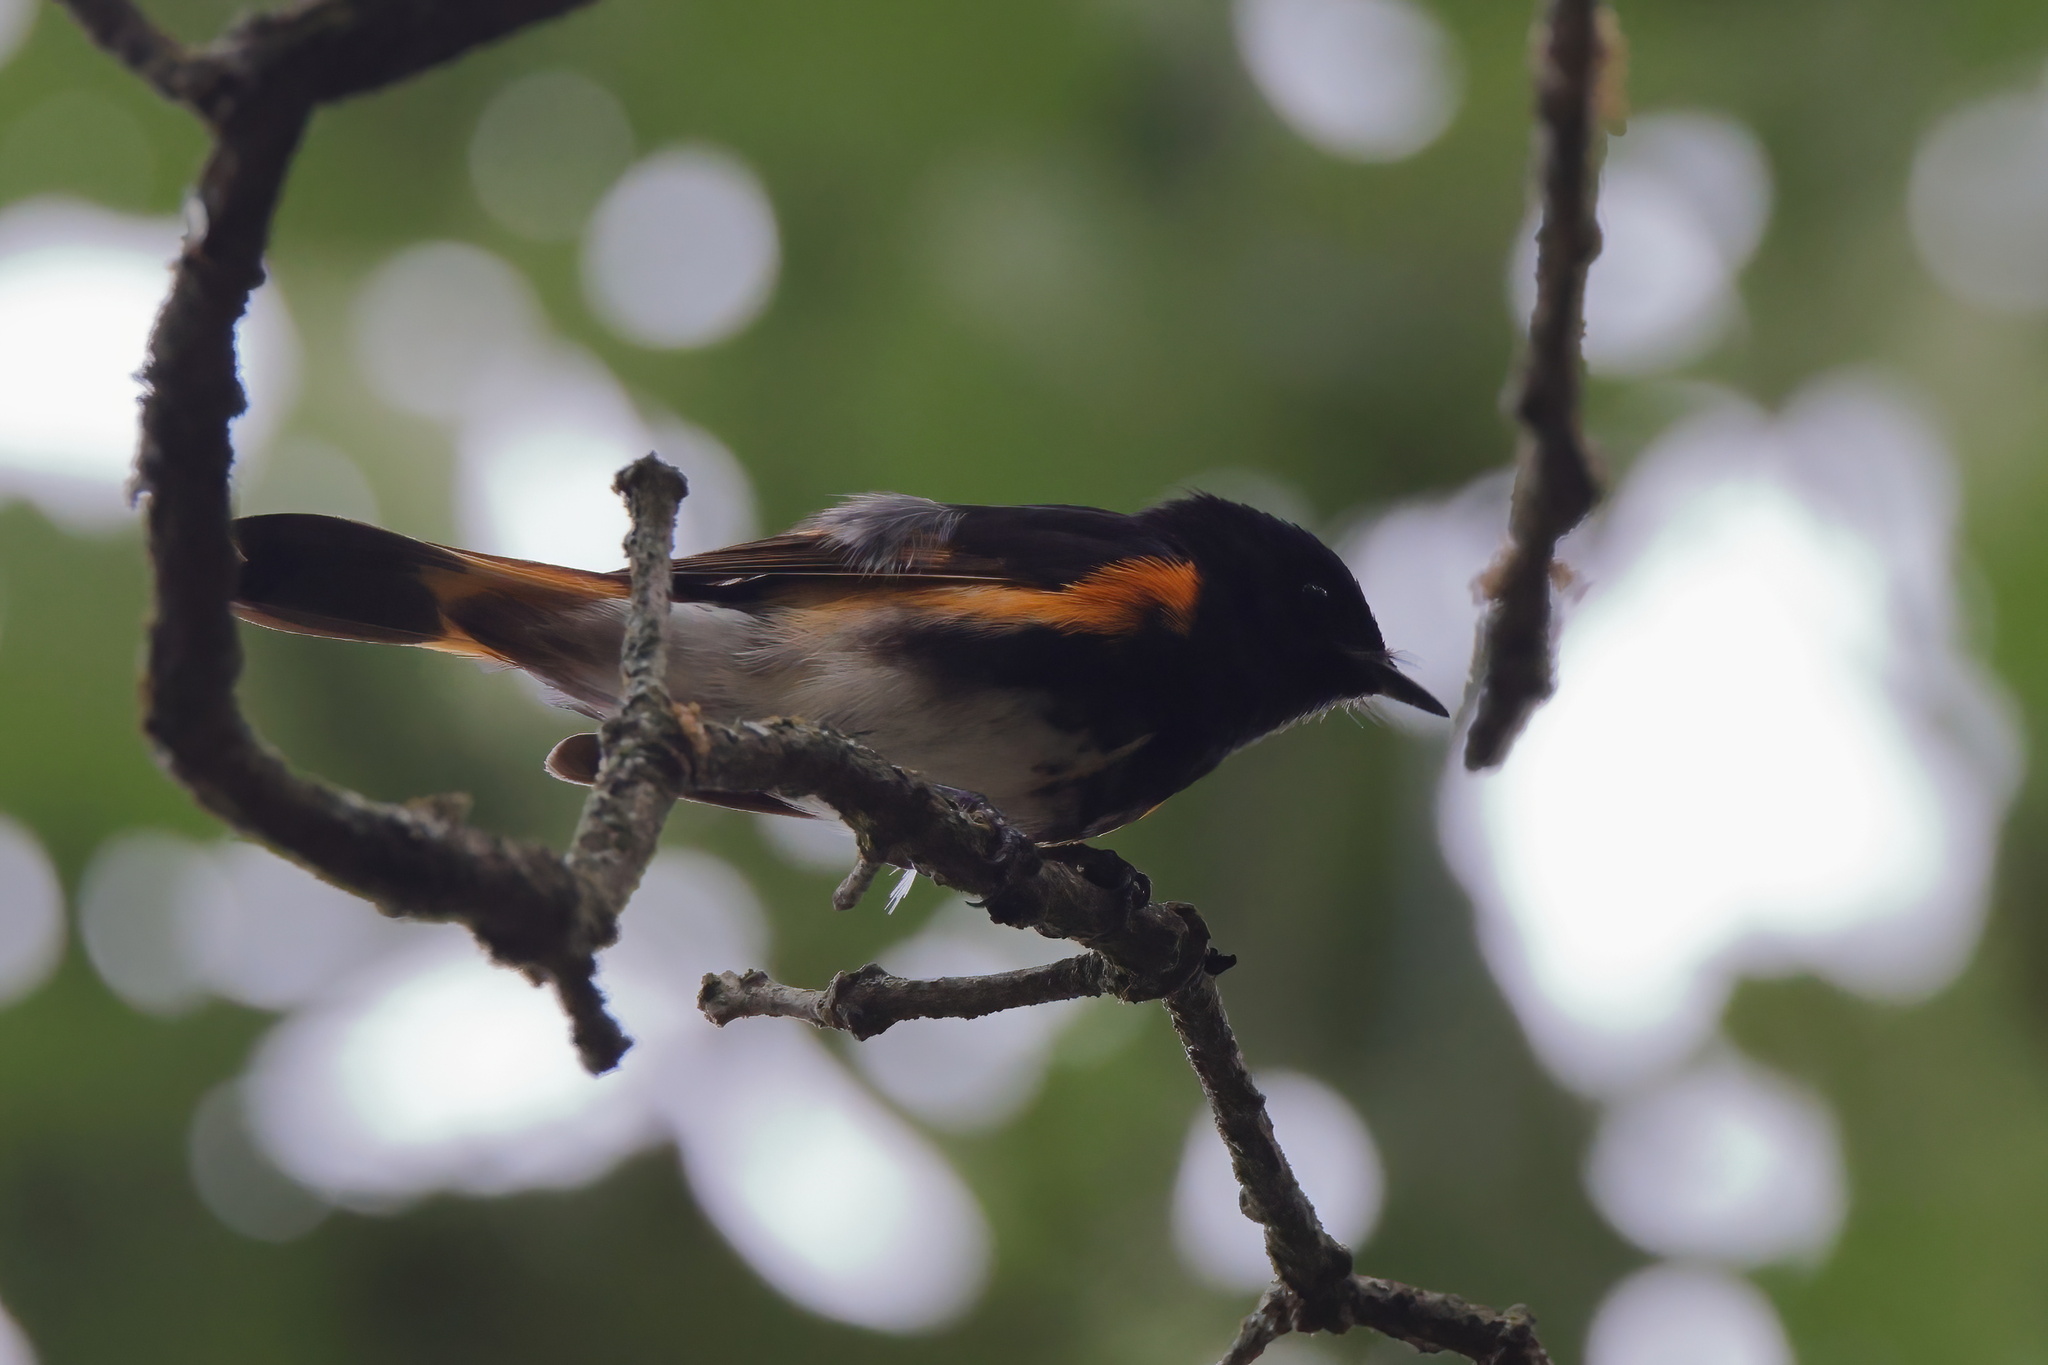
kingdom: Animalia
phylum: Chordata
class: Aves
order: Passeriformes
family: Parulidae
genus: Setophaga
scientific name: Setophaga ruticilla
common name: American redstart
